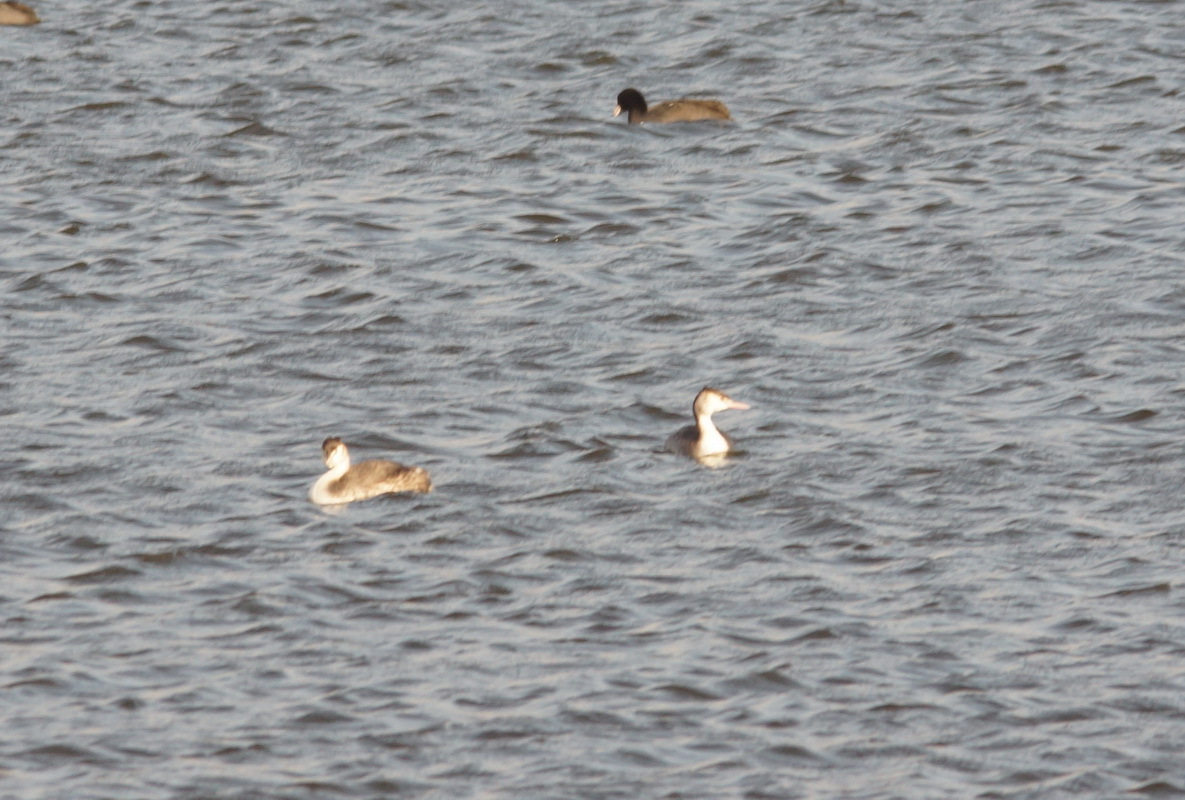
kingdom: Animalia
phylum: Chordata
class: Aves
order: Podicipediformes
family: Podicipedidae
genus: Podiceps
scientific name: Podiceps cristatus
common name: Great crested grebe
